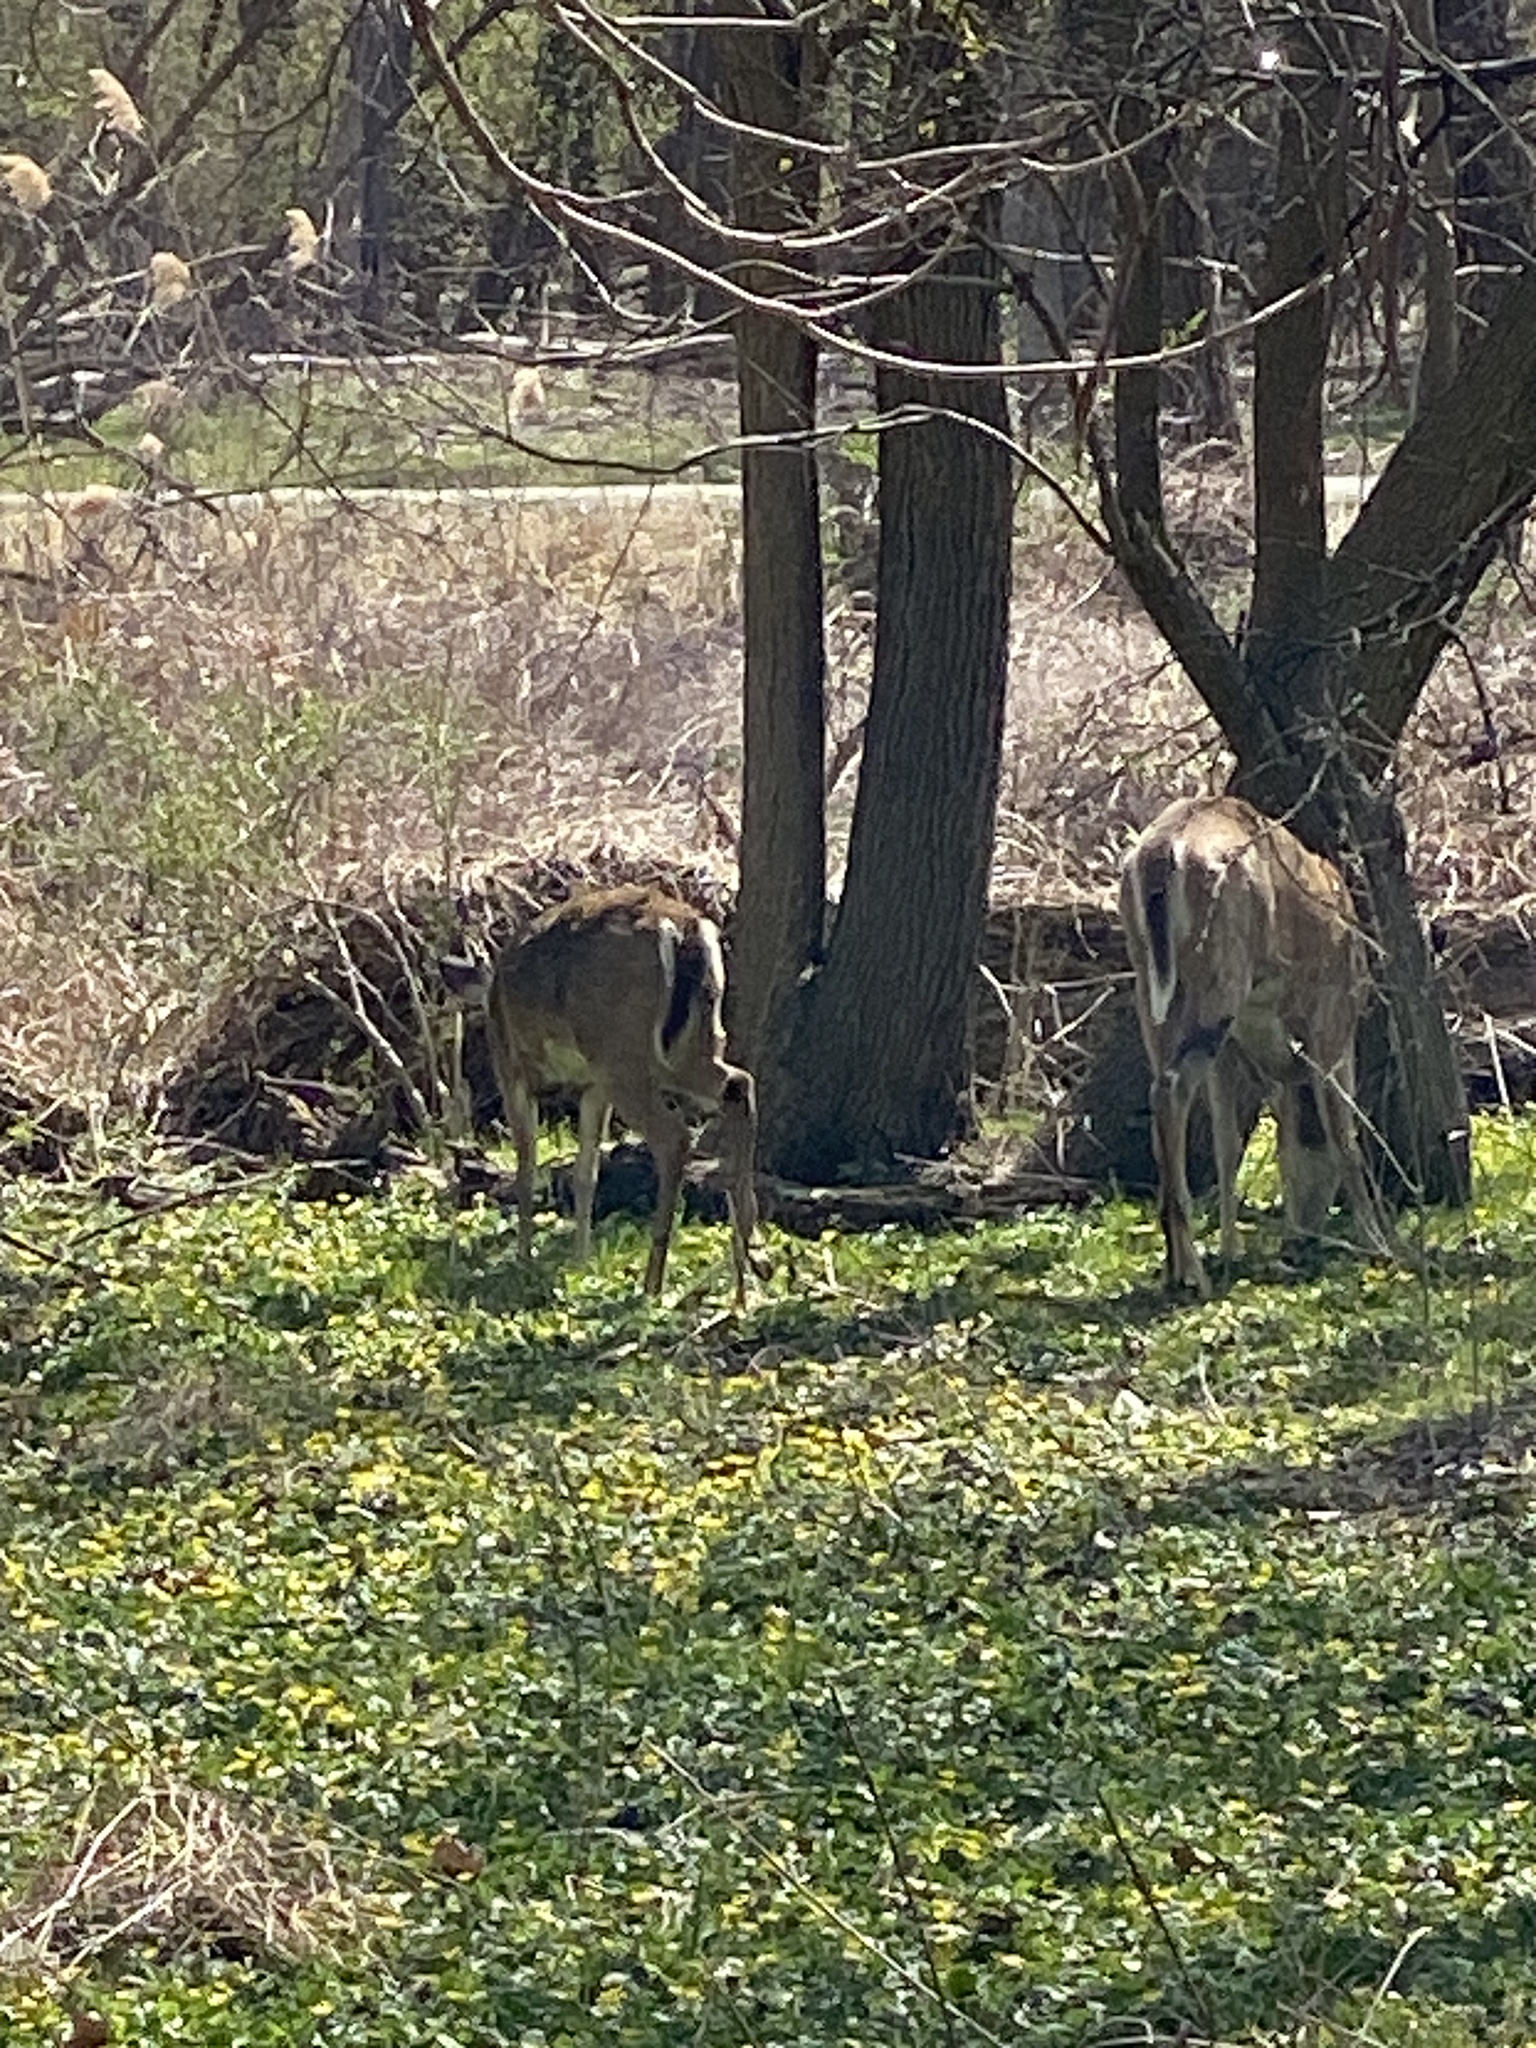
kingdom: Animalia
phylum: Chordata
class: Mammalia
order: Artiodactyla
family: Cervidae
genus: Odocoileus
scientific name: Odocoileus virginianus
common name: White-tailed deer
